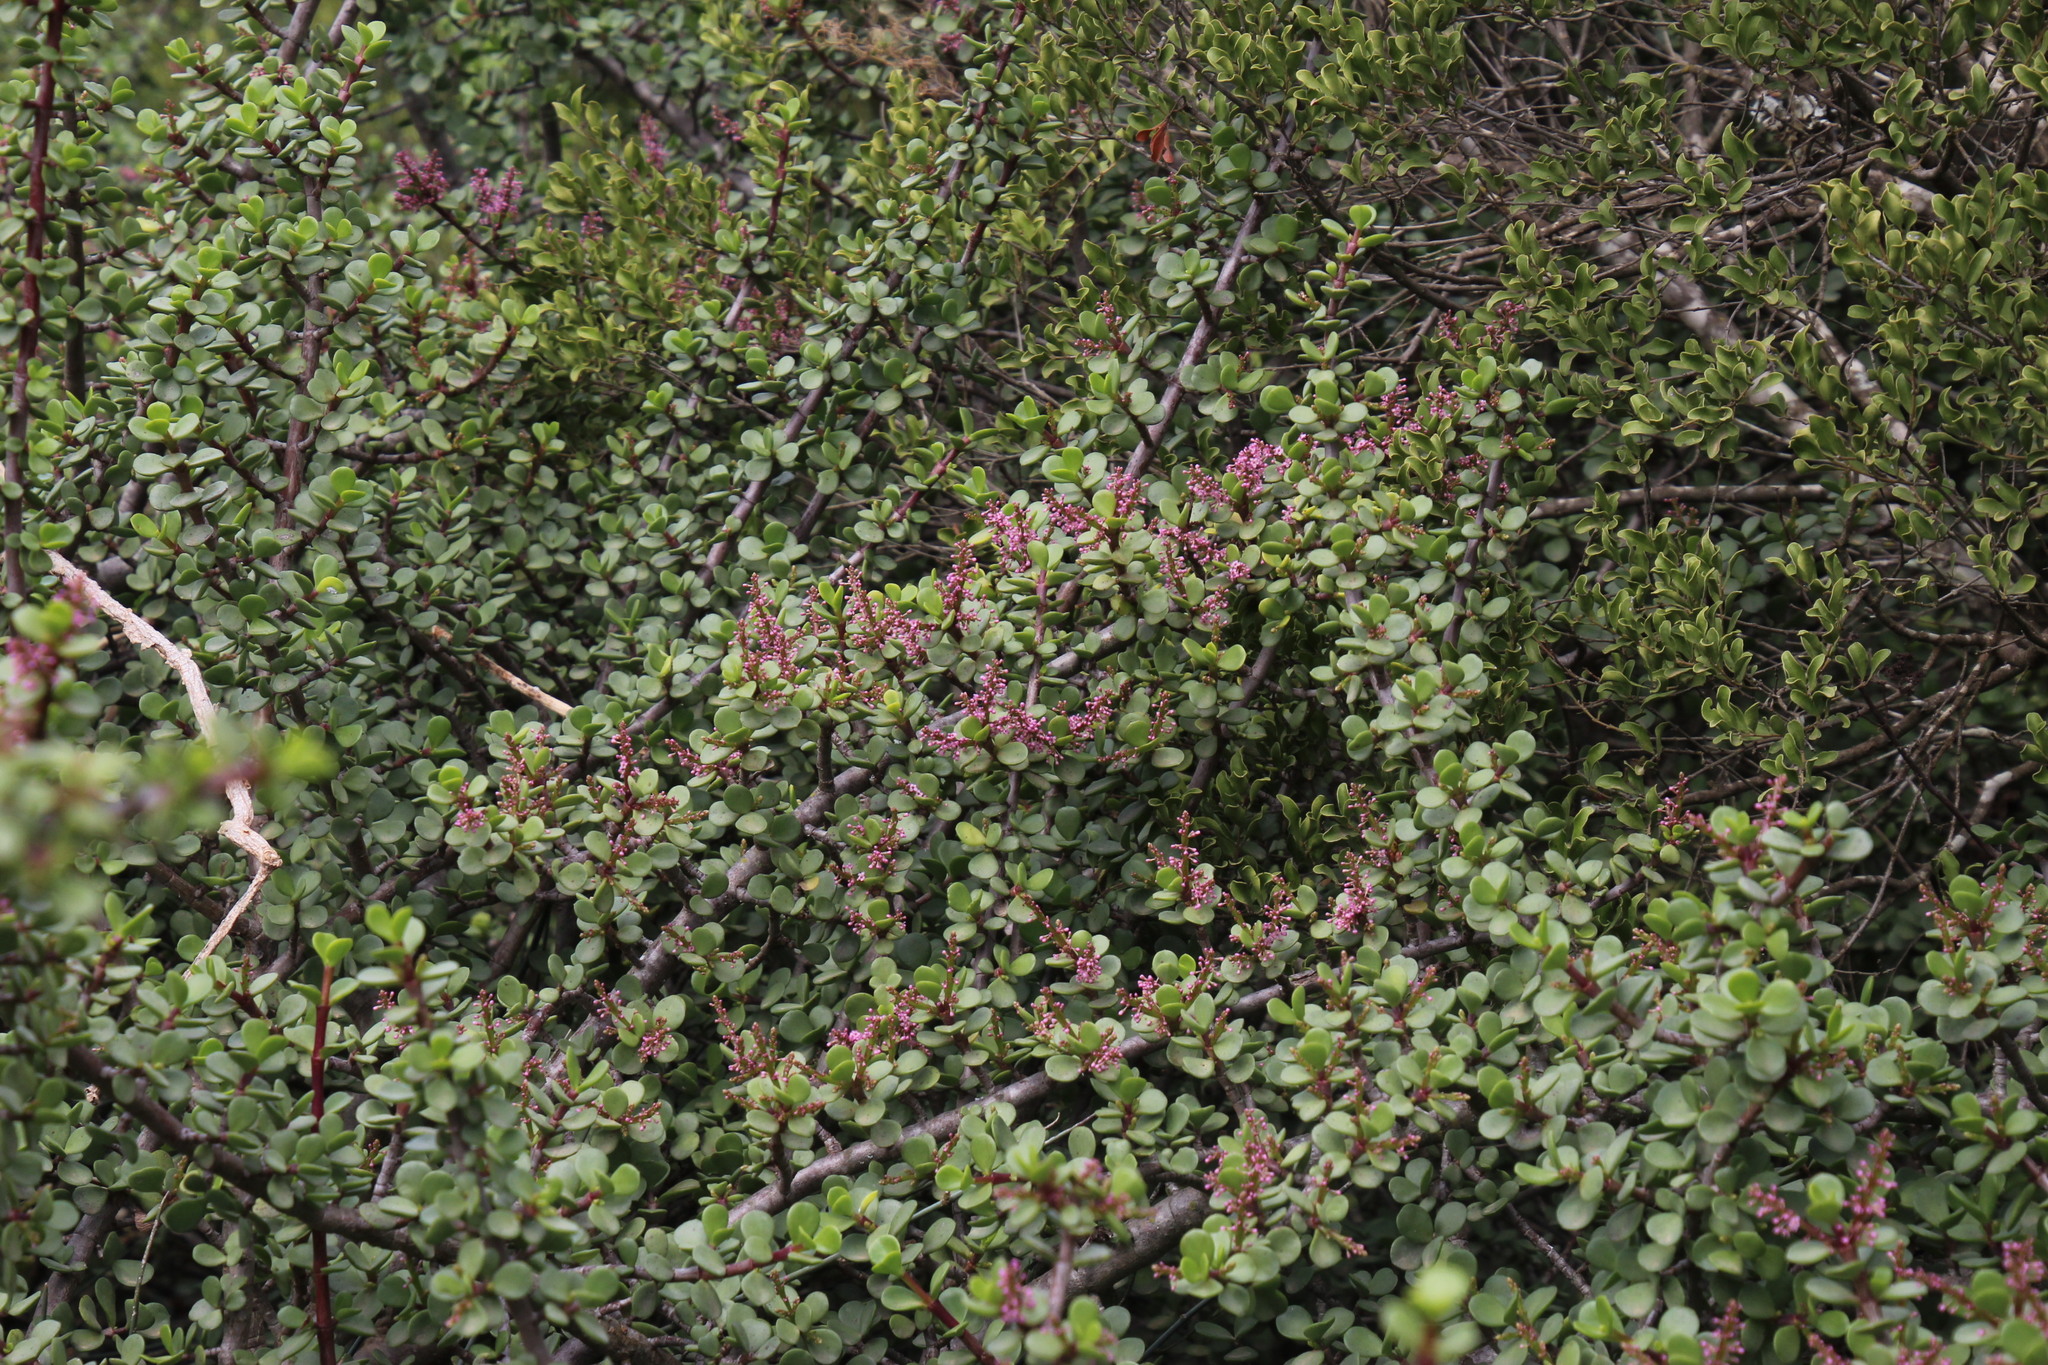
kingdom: Plantae
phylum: Tracheophyta
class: Magnoliopsida
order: Caryophyllales
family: Didiereaceae
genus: Portulacaria
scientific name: Portulacaria afra
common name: Elephant-bush
